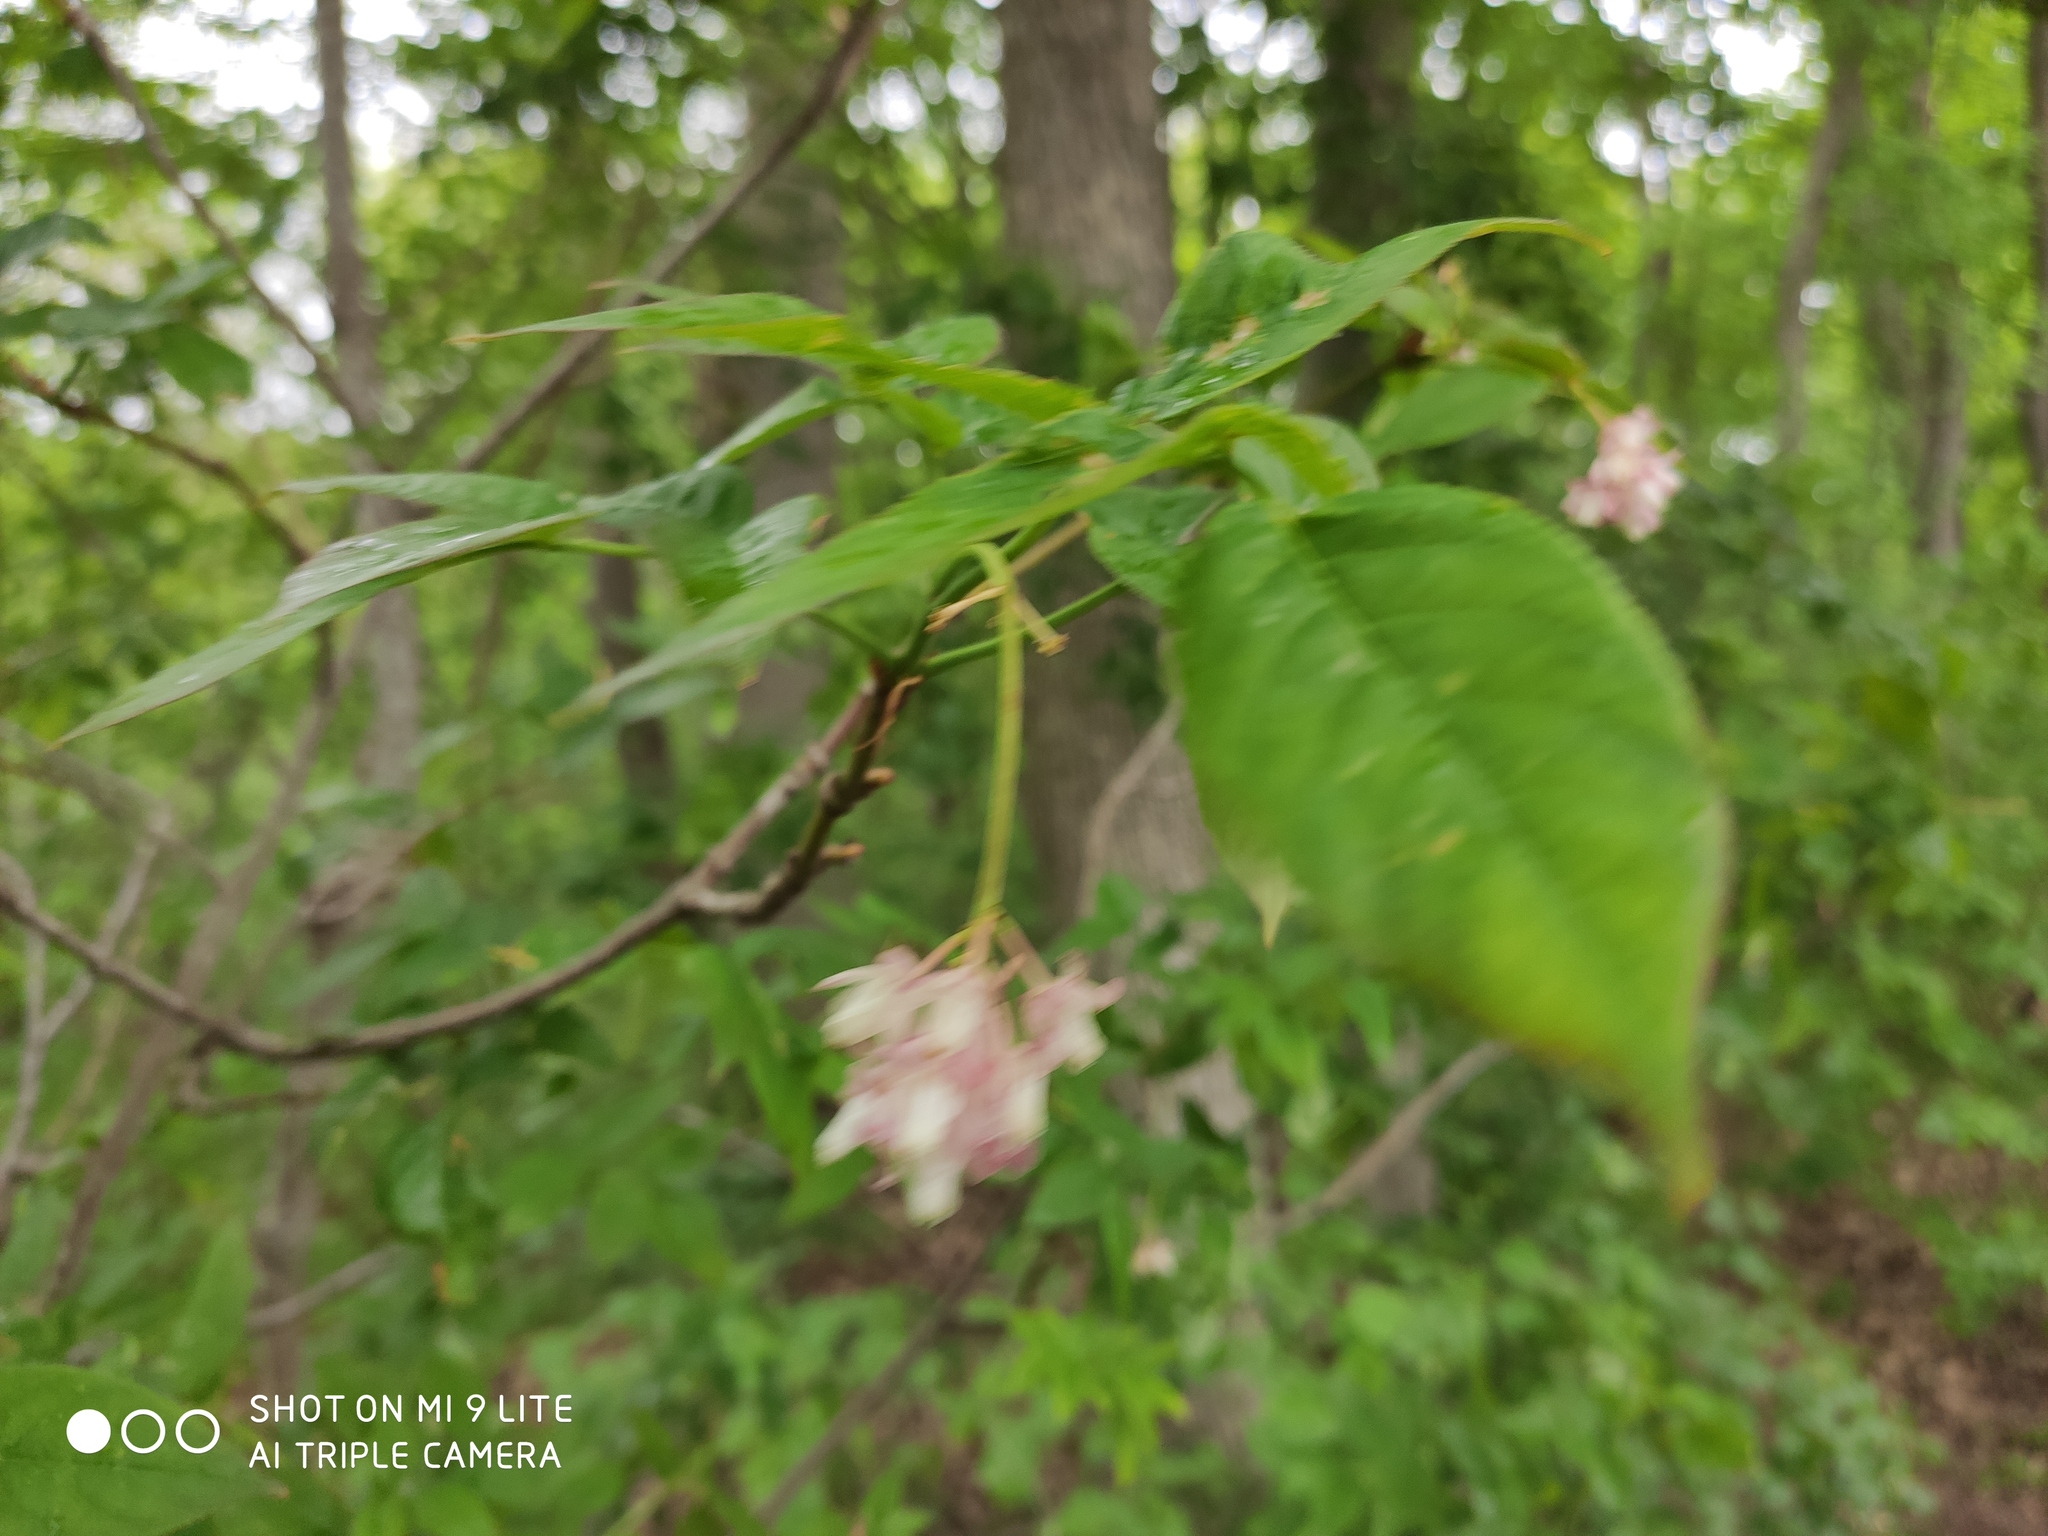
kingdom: Plantae
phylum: Tracheophyta
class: Magnoliopsida
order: Crossosomatales
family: Staphyleaceae
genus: Staphylea
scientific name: Staphylea pinnata
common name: Bladdernut
